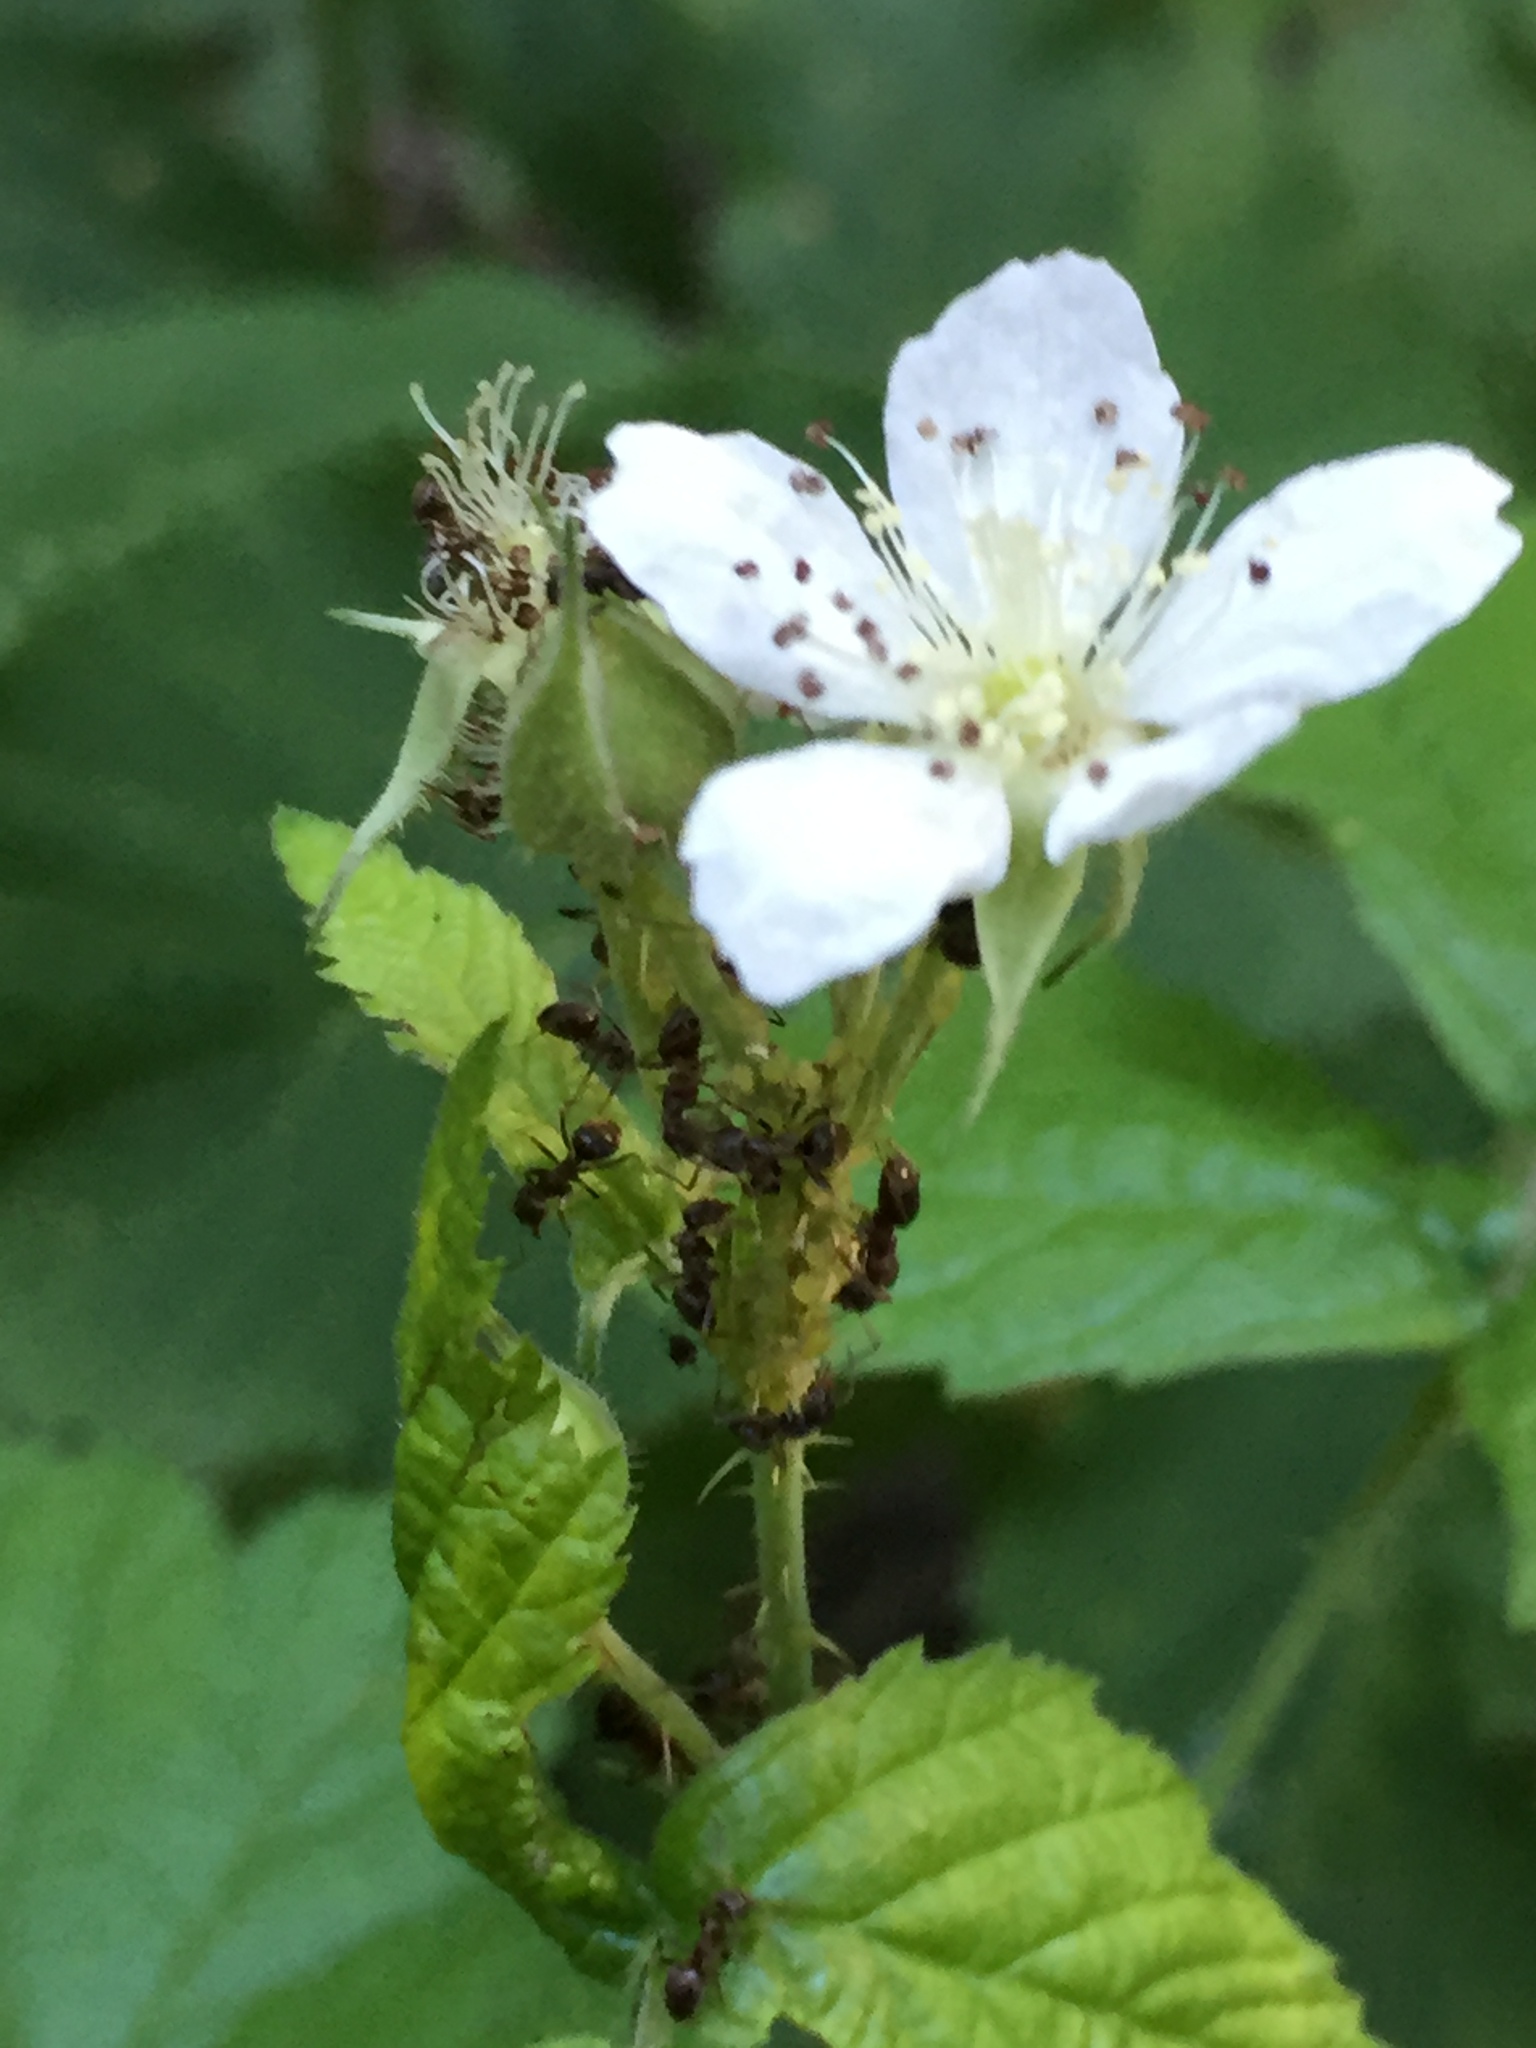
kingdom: Plantae
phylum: Tracheophyta
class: Magnoliopsida
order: Rosales
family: Rosaceae
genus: Rubus
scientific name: Rubus caesius
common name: Dewberry
